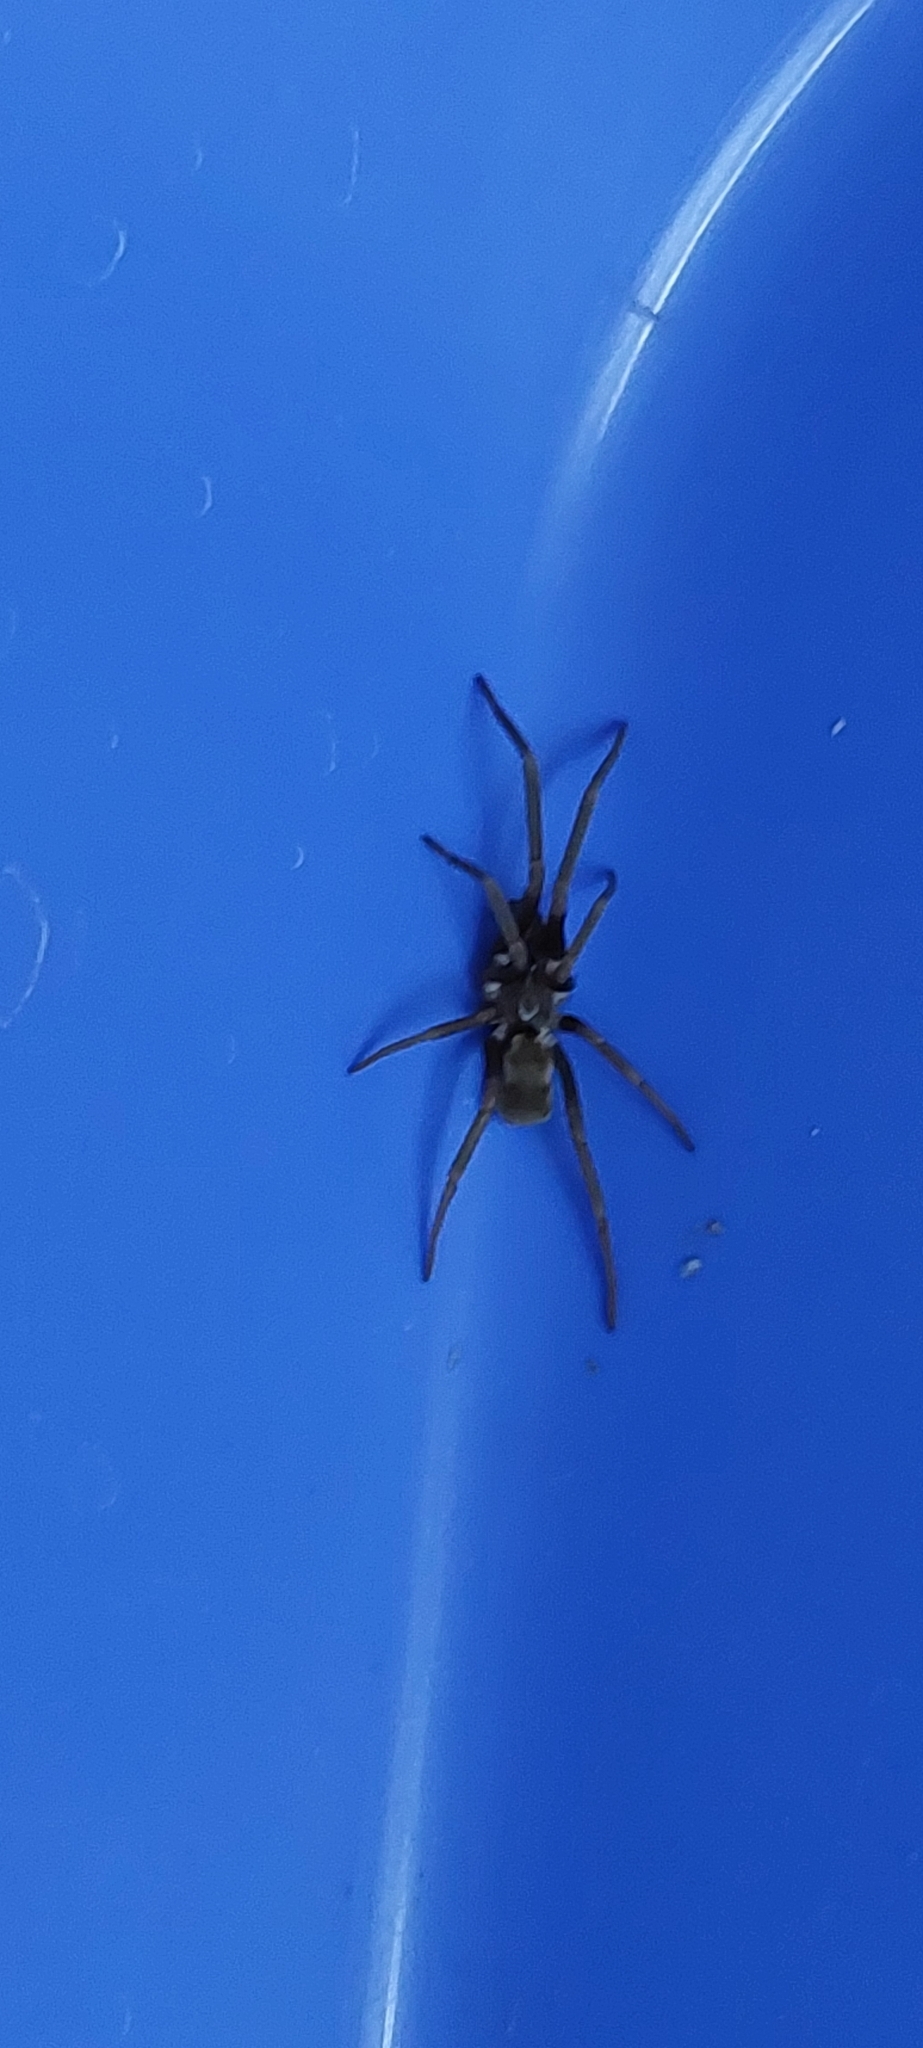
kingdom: Animalia
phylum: Arthropoda
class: Arachnida
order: Araneae
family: Filistatidae
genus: Kukulcania
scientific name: Kukulcania hibernalis
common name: Crevice weaver
